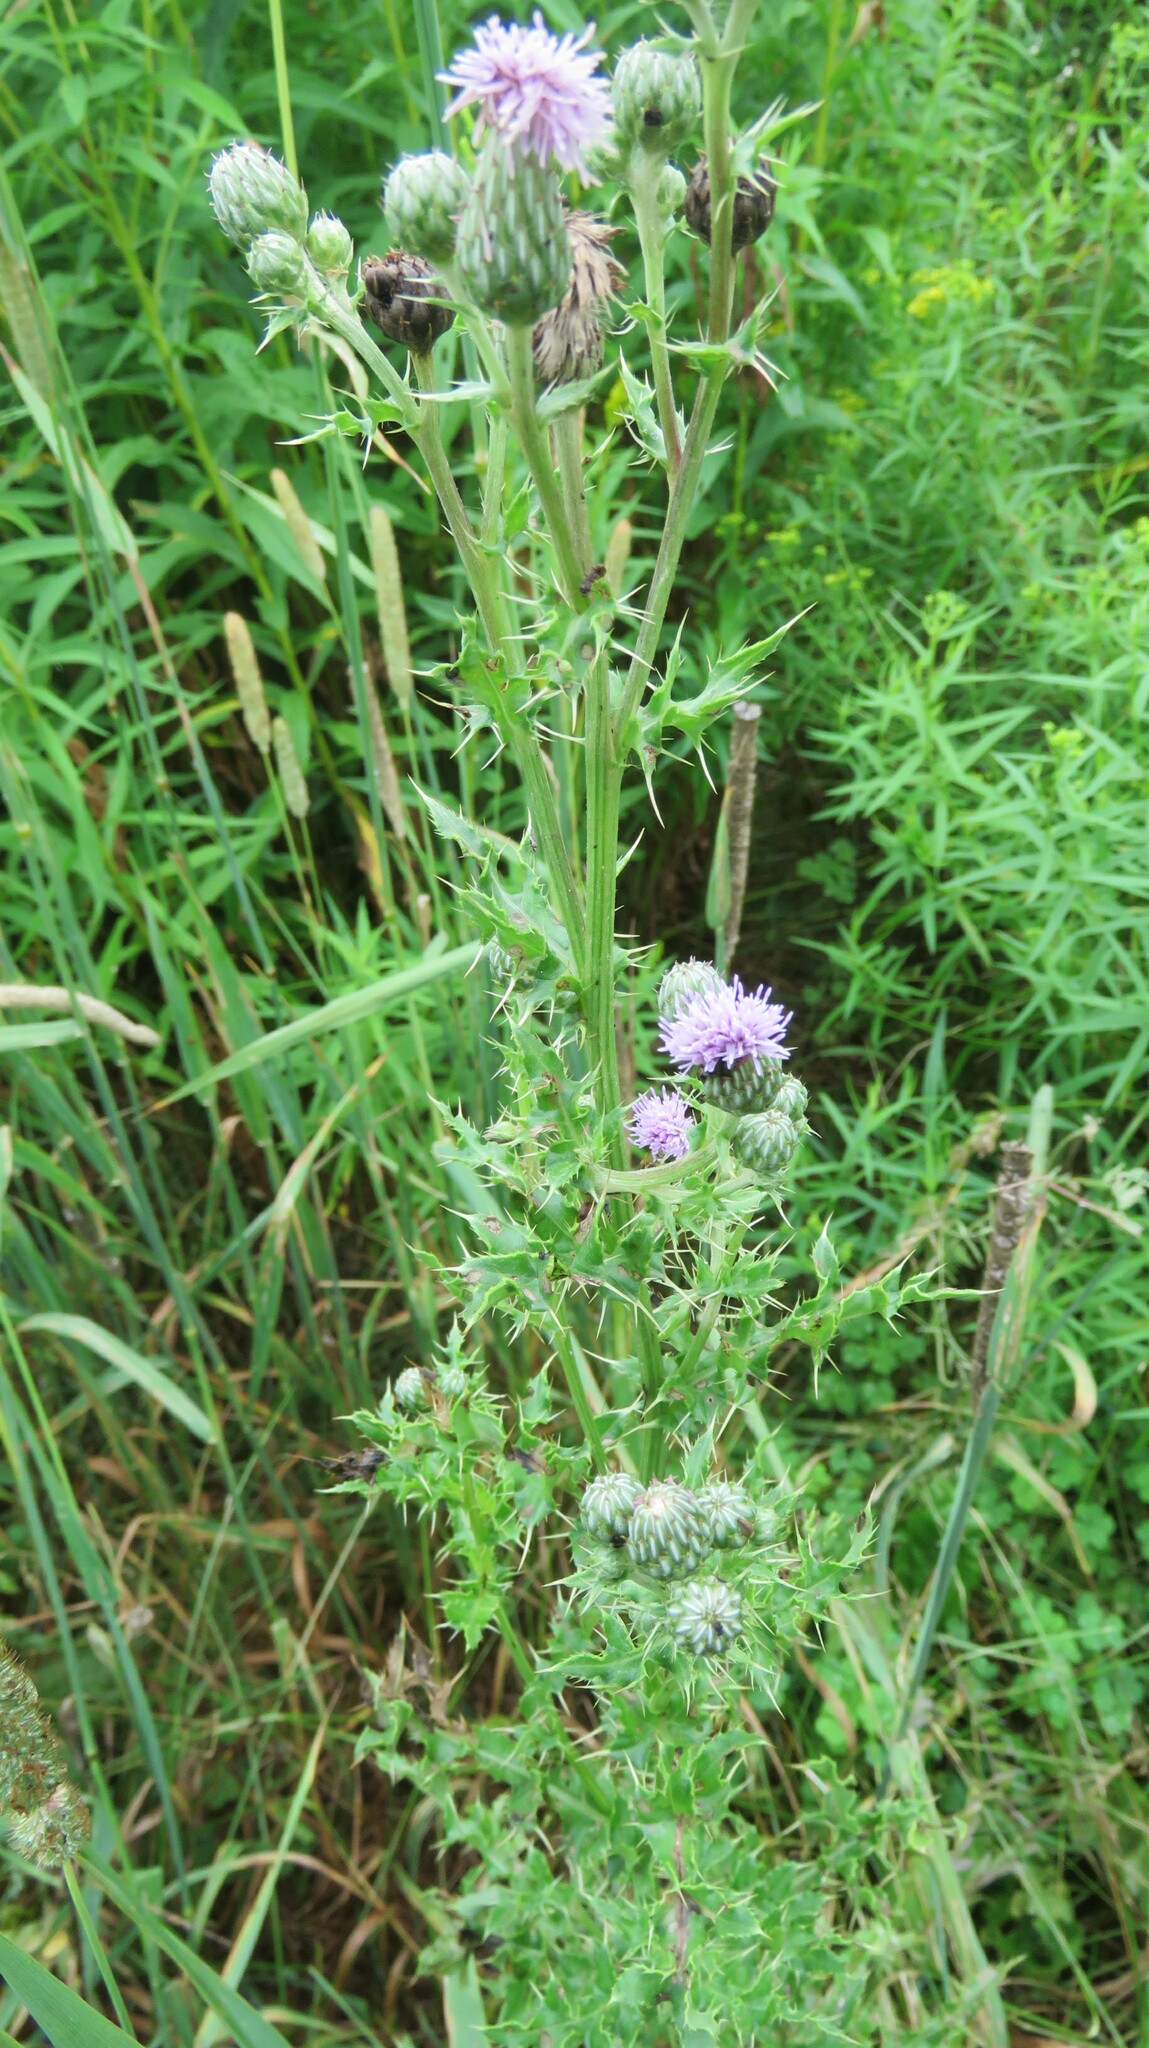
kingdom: Plantae
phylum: Tracheophyta
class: Magnoliopsida
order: Asterales
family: Asteraceae
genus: Cirsium
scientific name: Cirsium arvense
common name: Creeping thistle
